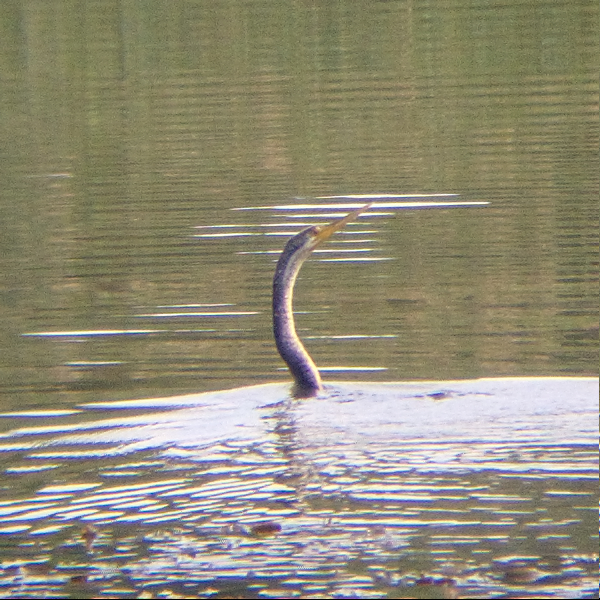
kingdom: Animalia
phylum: Chordata
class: Aves
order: Suliformes
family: Anhingidae
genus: Anhinga
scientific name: Anhinga novaehollandiae
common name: Australasian darter
